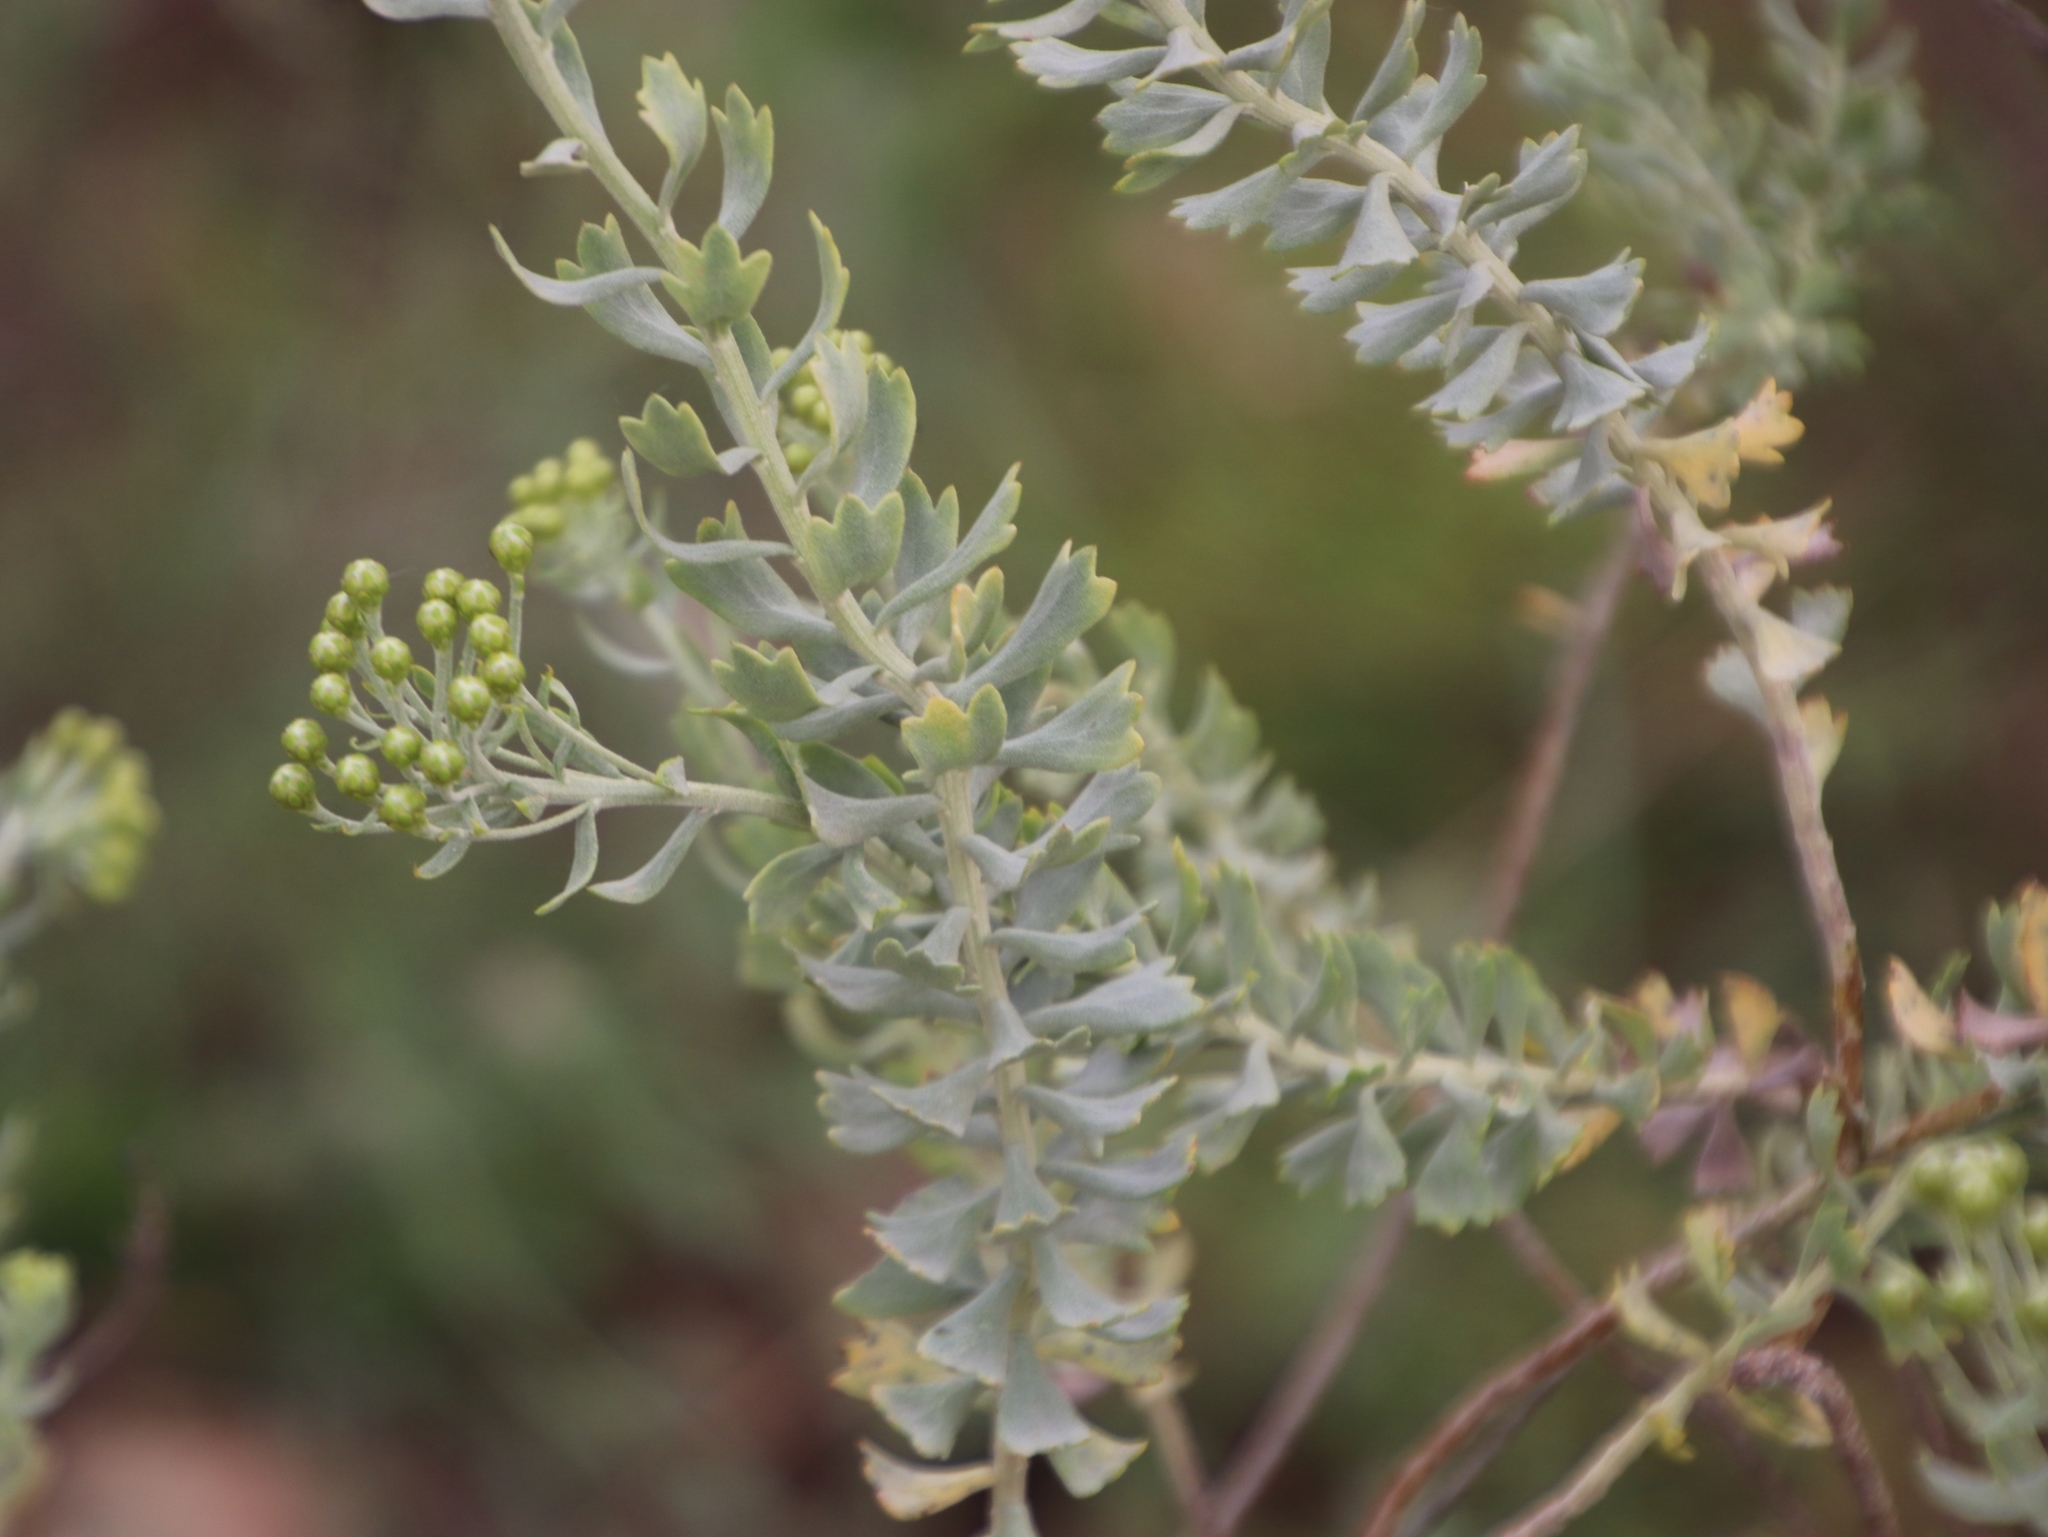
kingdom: Plantae
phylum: Tracheophyta
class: Magnoliopsida
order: Asterales
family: Asteraceae
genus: Athanasia
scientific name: Athanasia trifurcata
